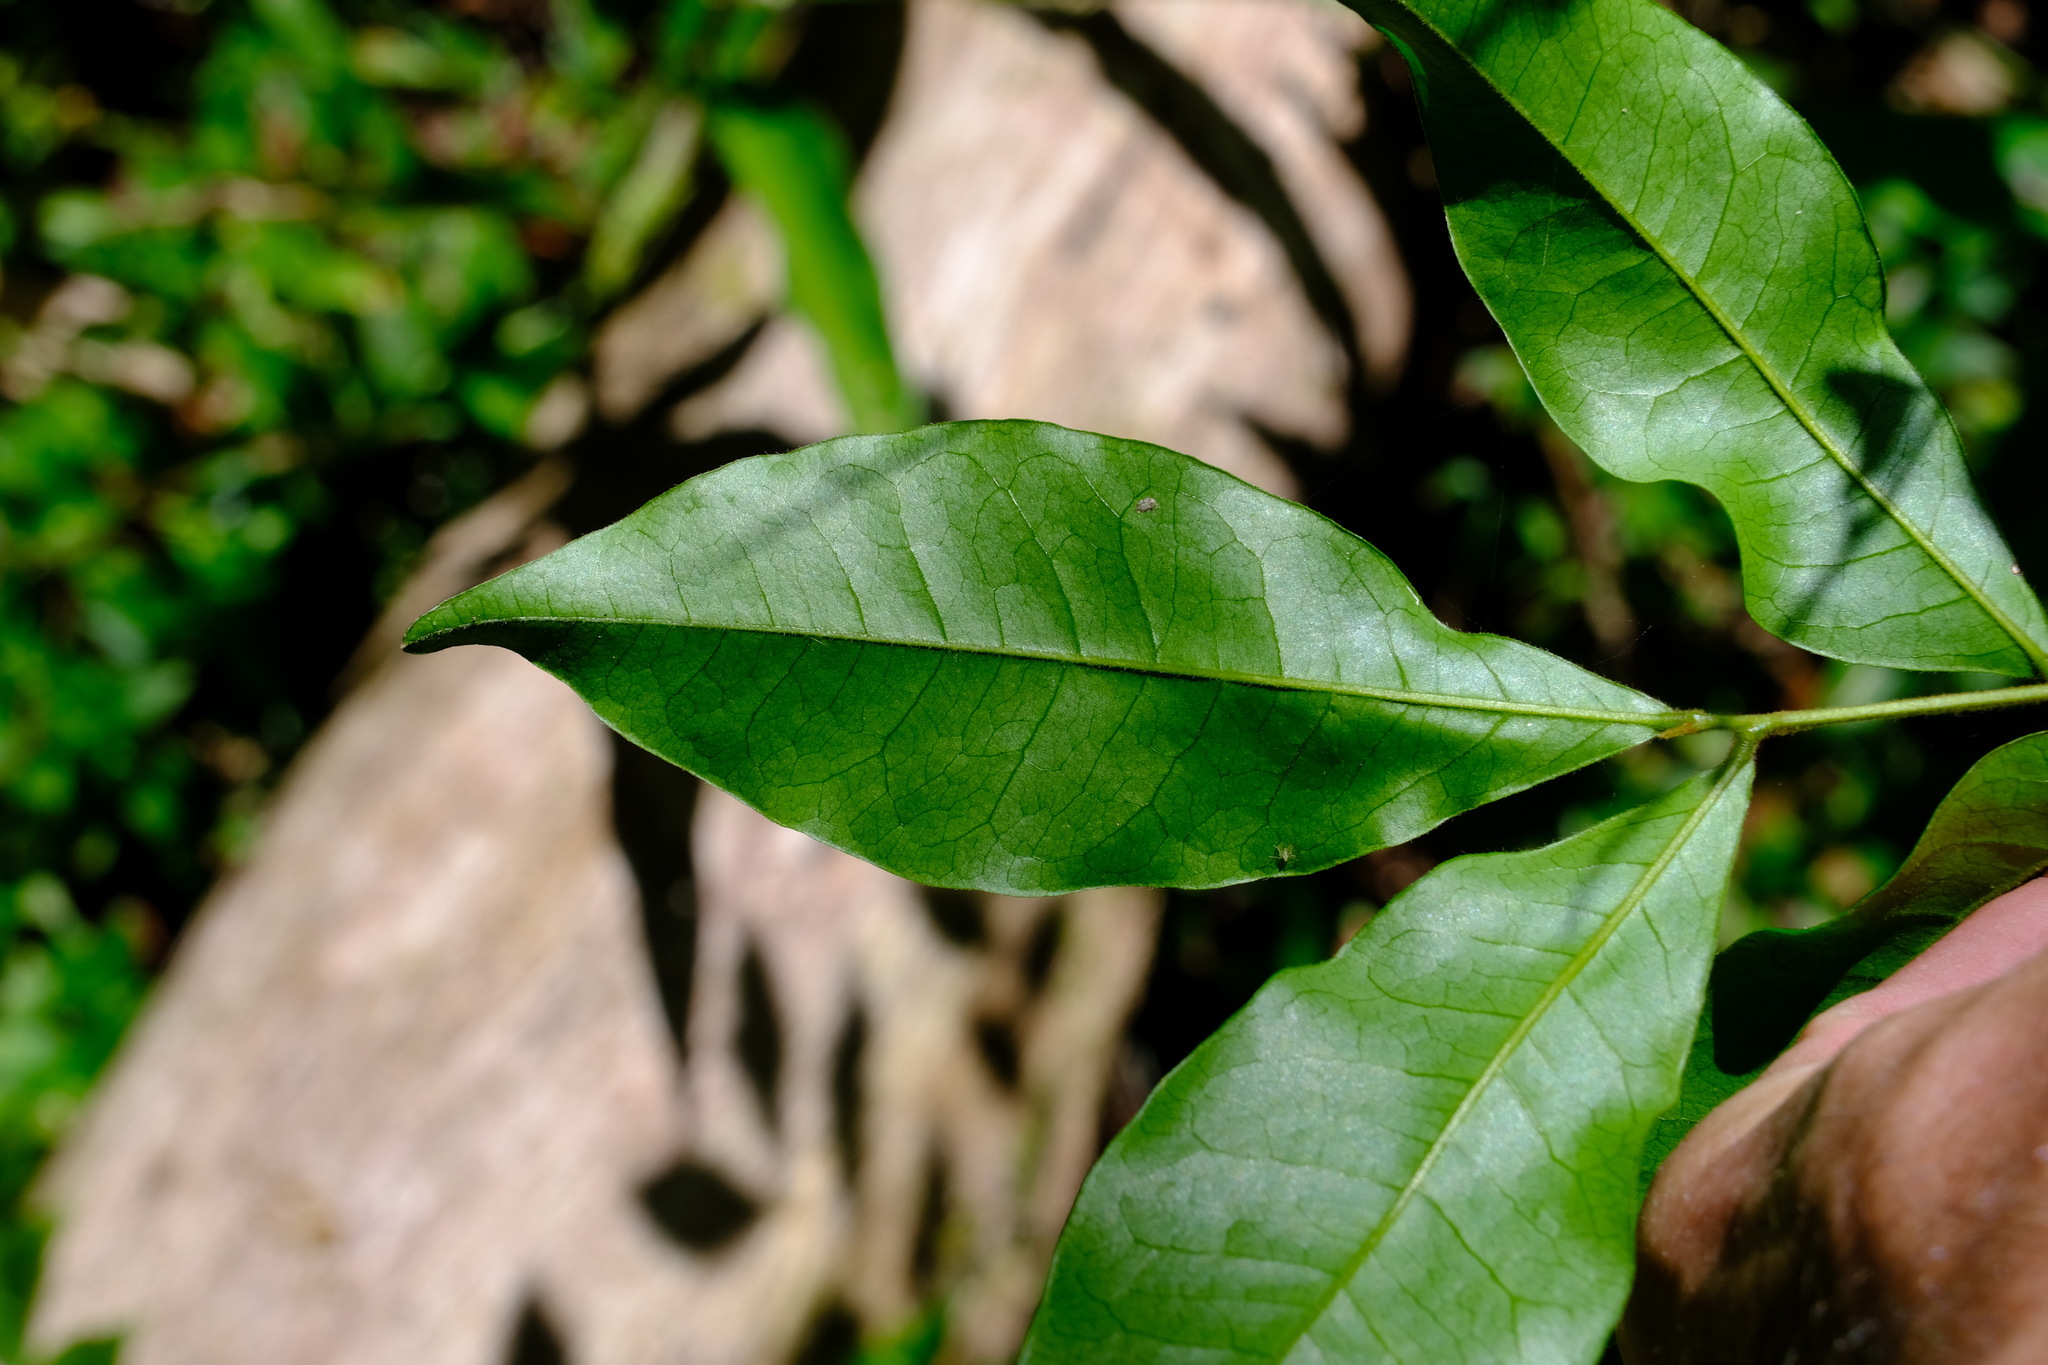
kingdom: Plantae
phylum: Tracheophyta
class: Magnoliopsida
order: Fabales
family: Fabaceae
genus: Pararchidendron
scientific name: Pararchidendron pruinosum
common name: Tulip siris
